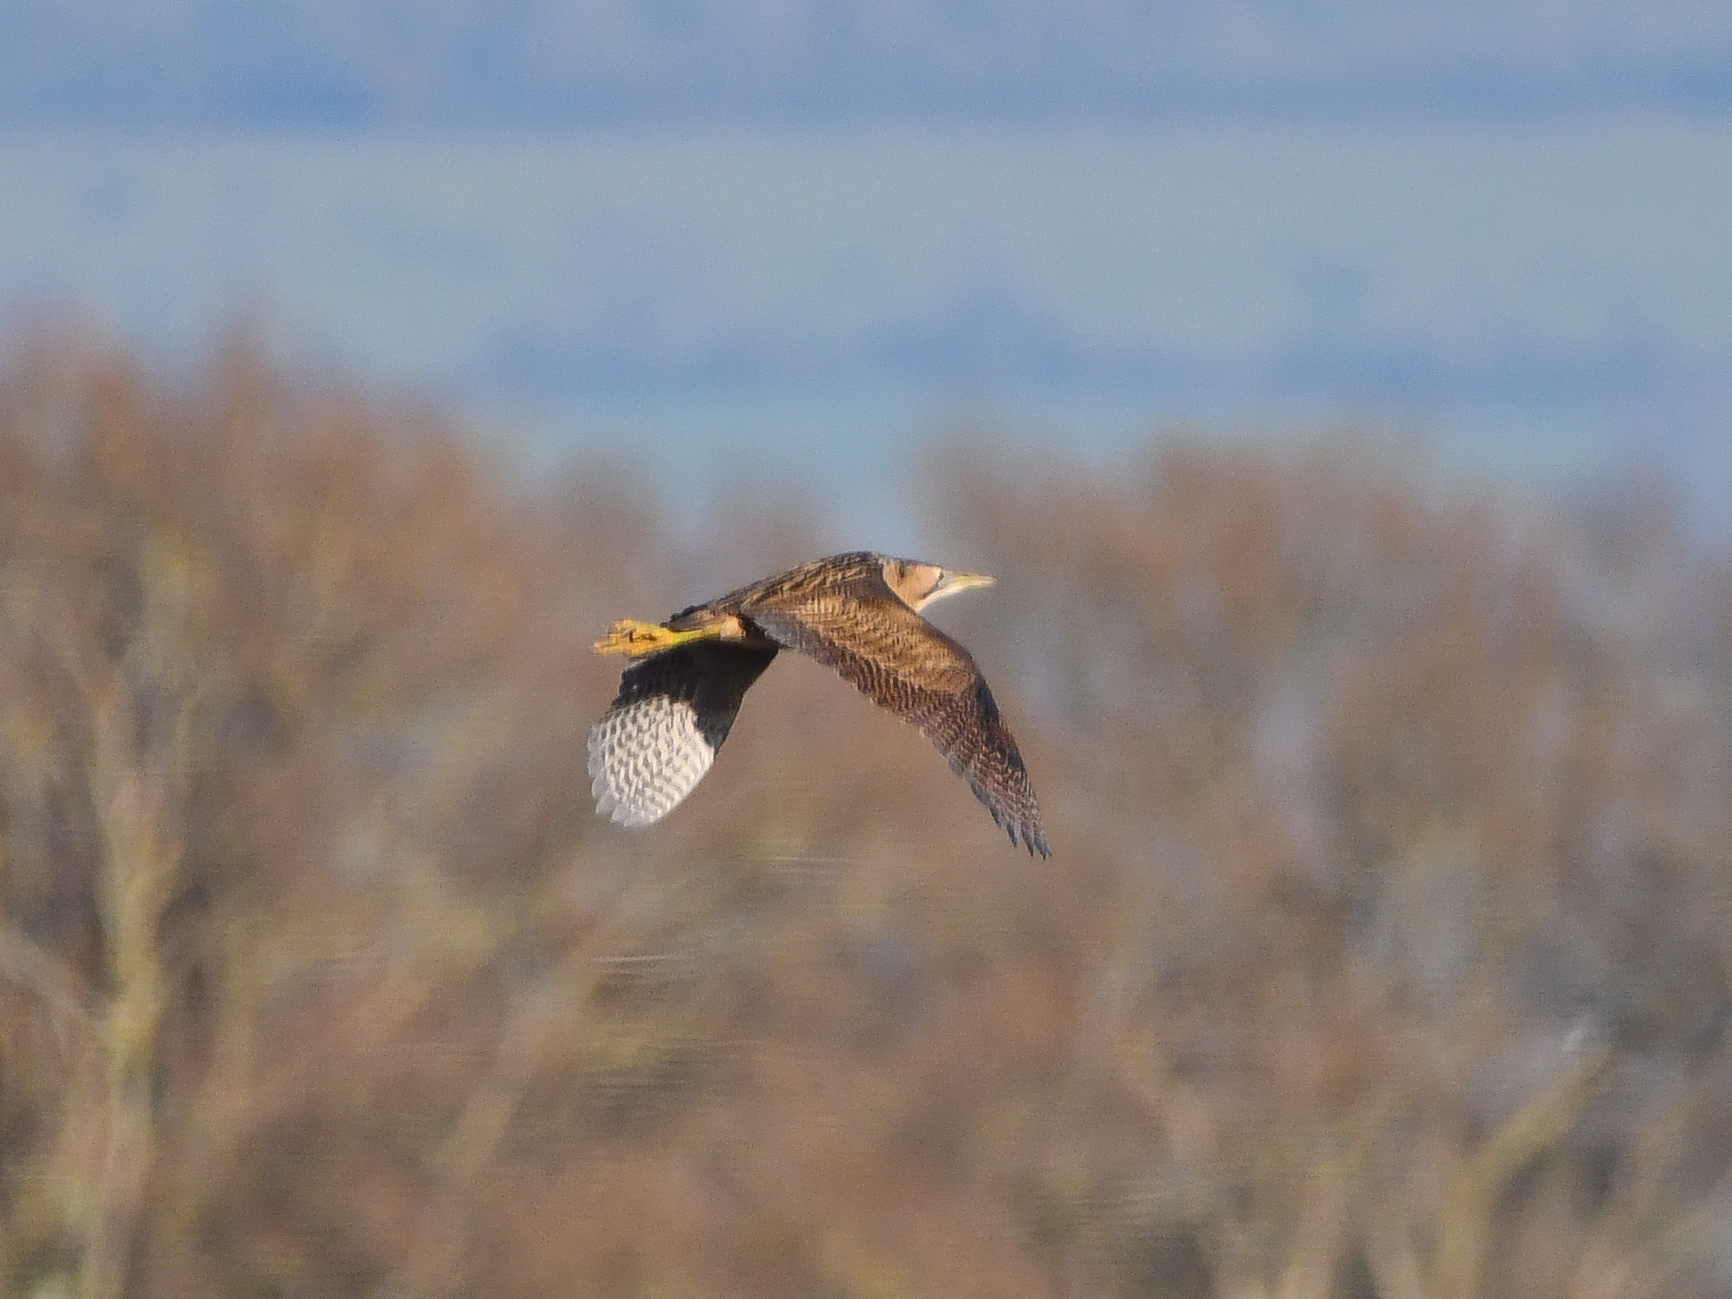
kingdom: Animalia
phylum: Chordata
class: Aves
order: Pelecaniformes
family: Ardeidae
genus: Botaurus
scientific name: Botaurus stellaris
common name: Eurasian bittern
